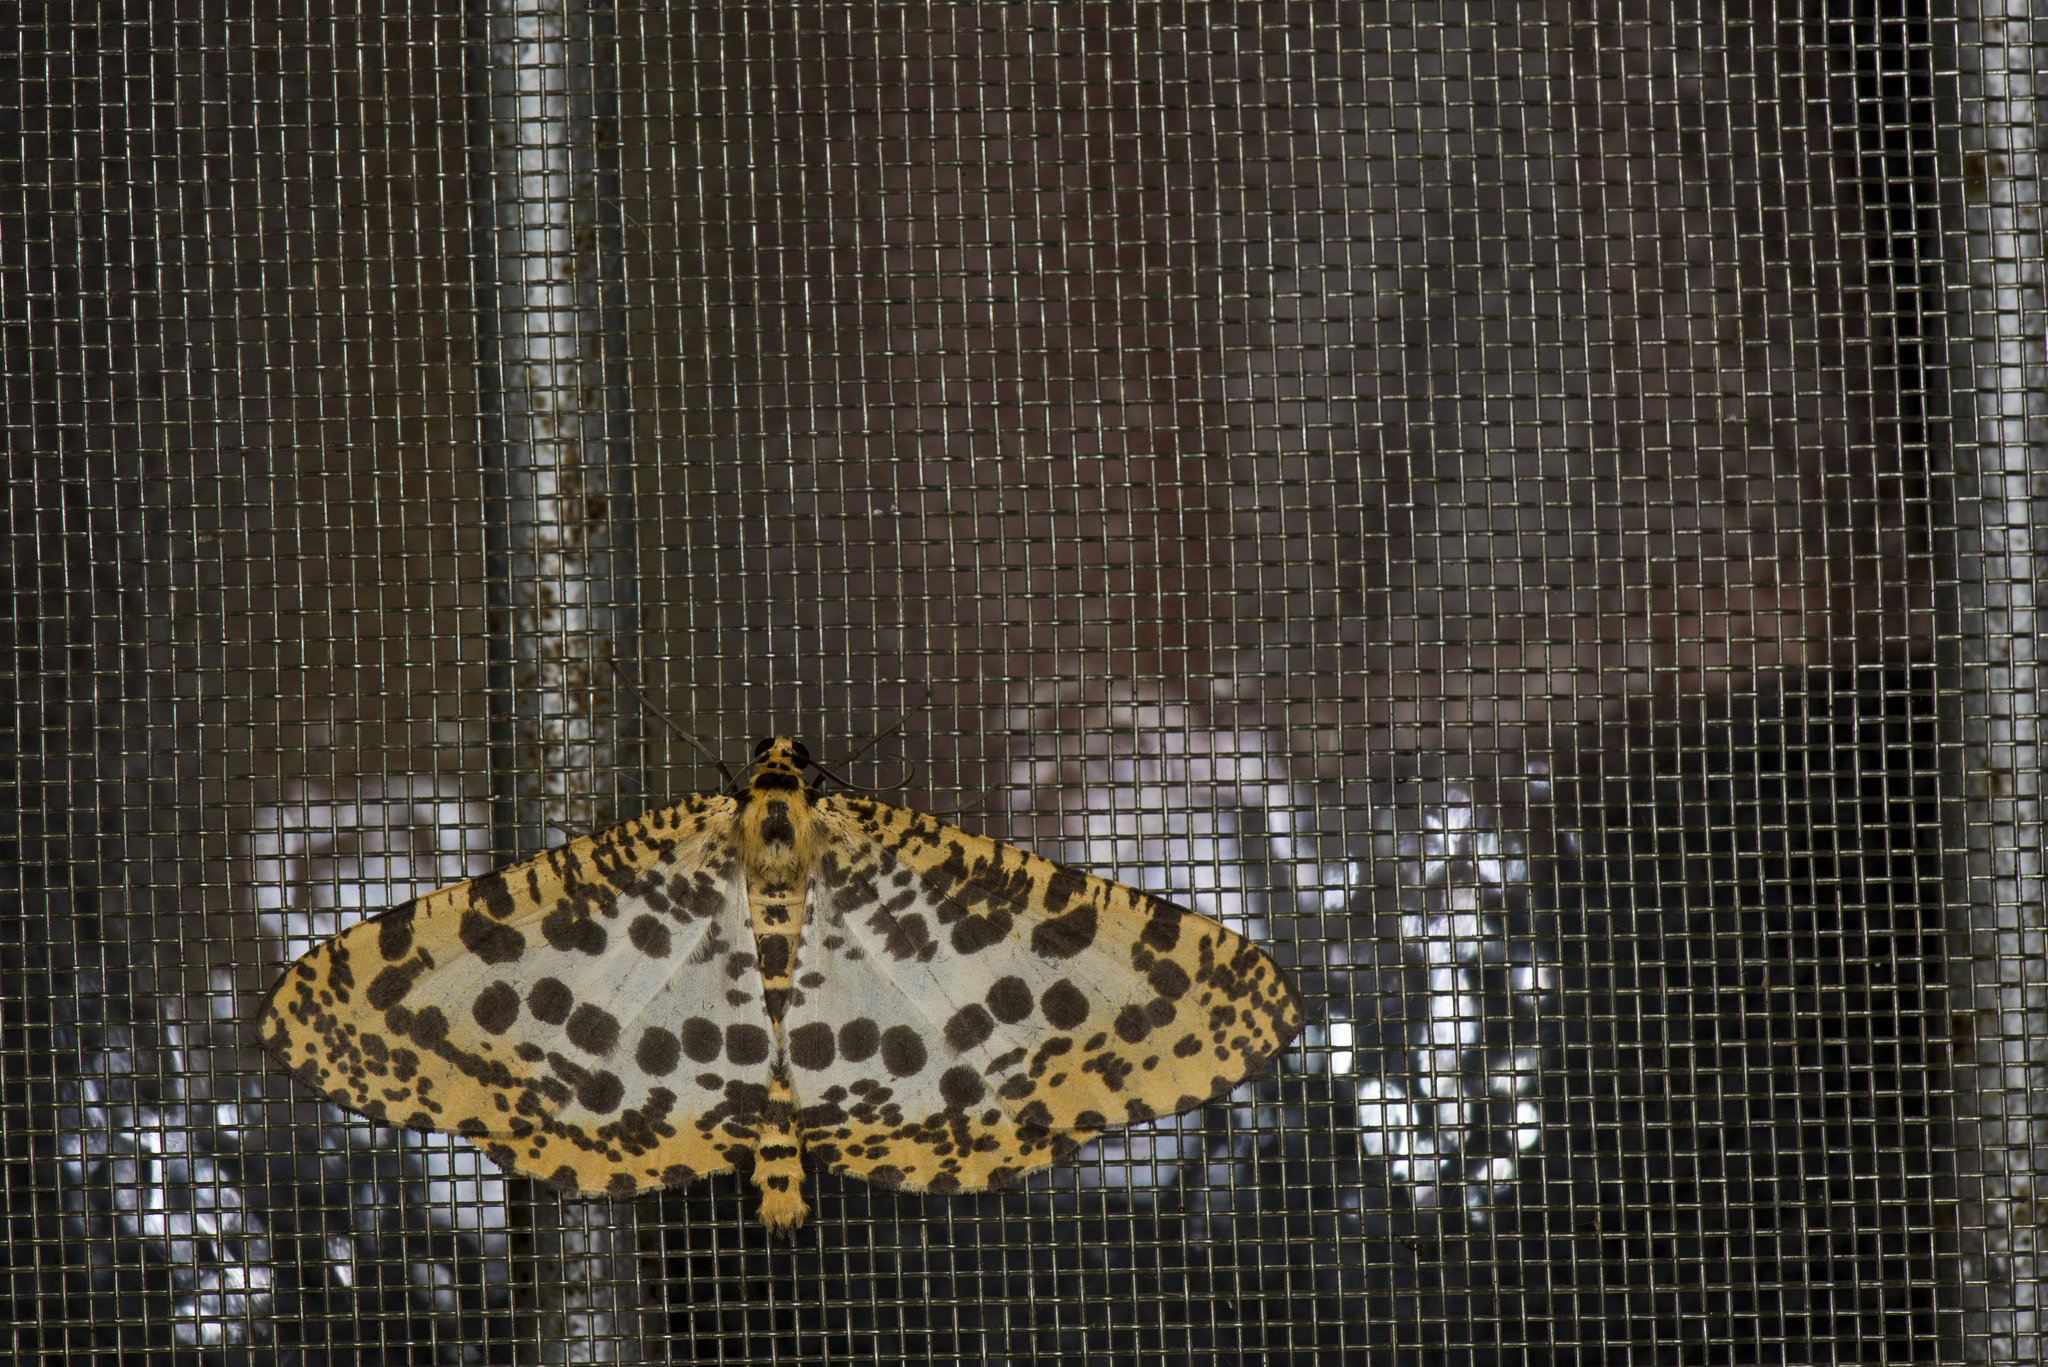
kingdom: Animalia
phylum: Arthropoda
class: Insecta
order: Lepidoptera
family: Geometridae
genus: Obeidia
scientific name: Obeidia Epobeidia tigrata
